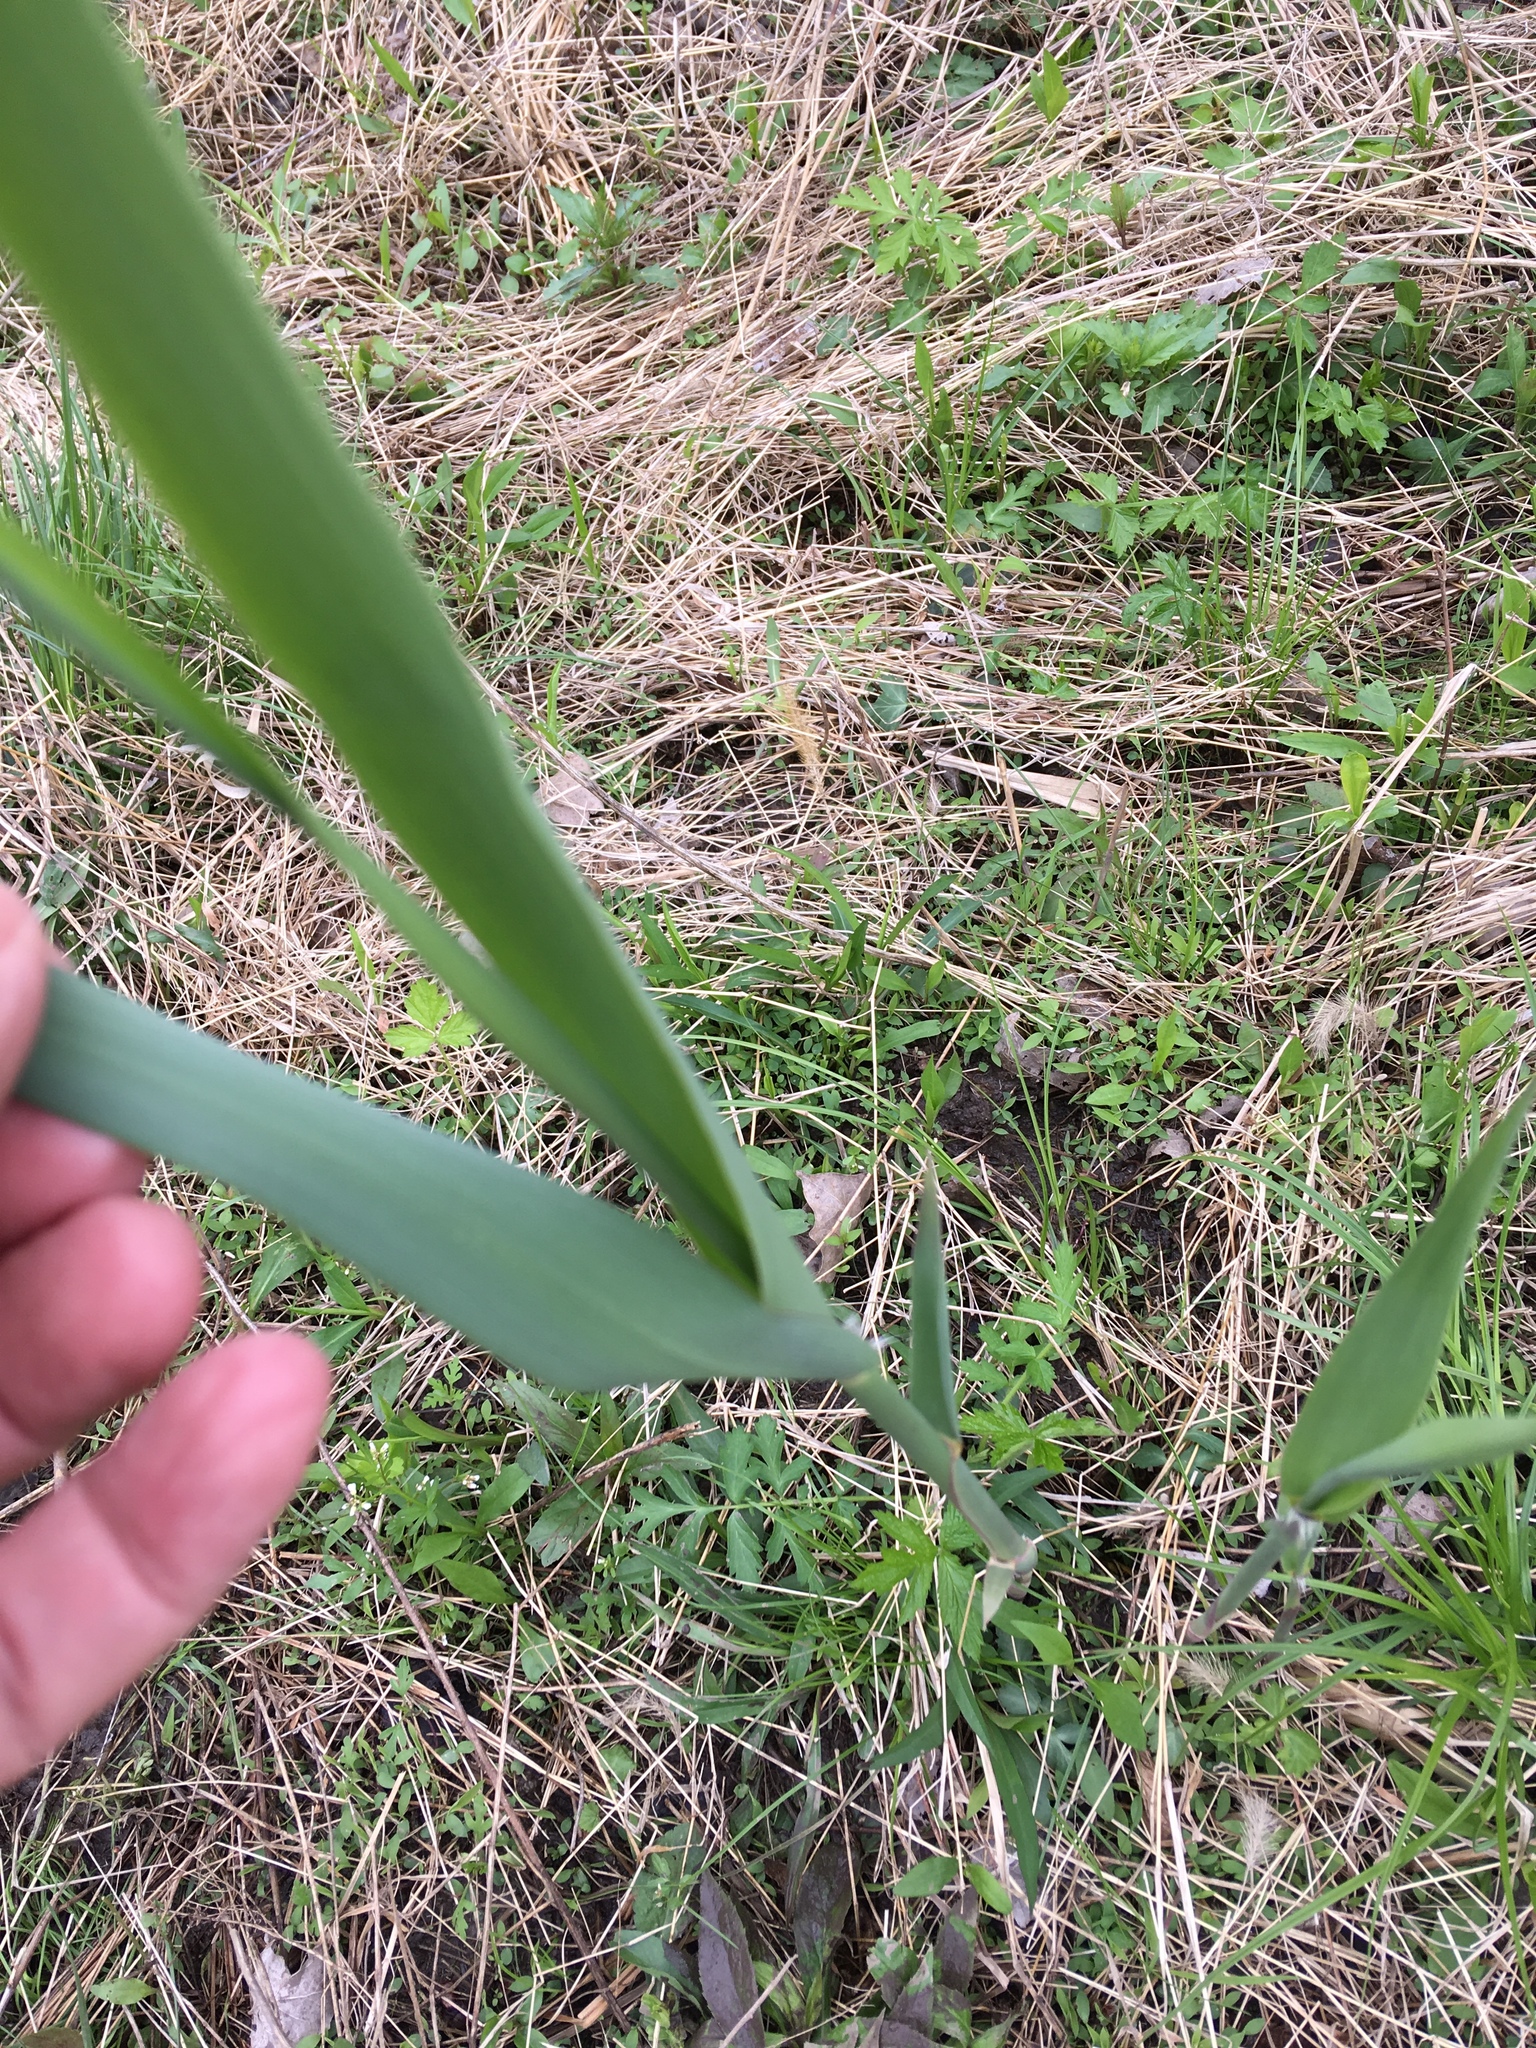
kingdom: Plantae
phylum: Tracheophyta
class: Liliopsida
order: Poales
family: Poaceae
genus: Phragmites
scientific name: Phragmites australis
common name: Common reed
